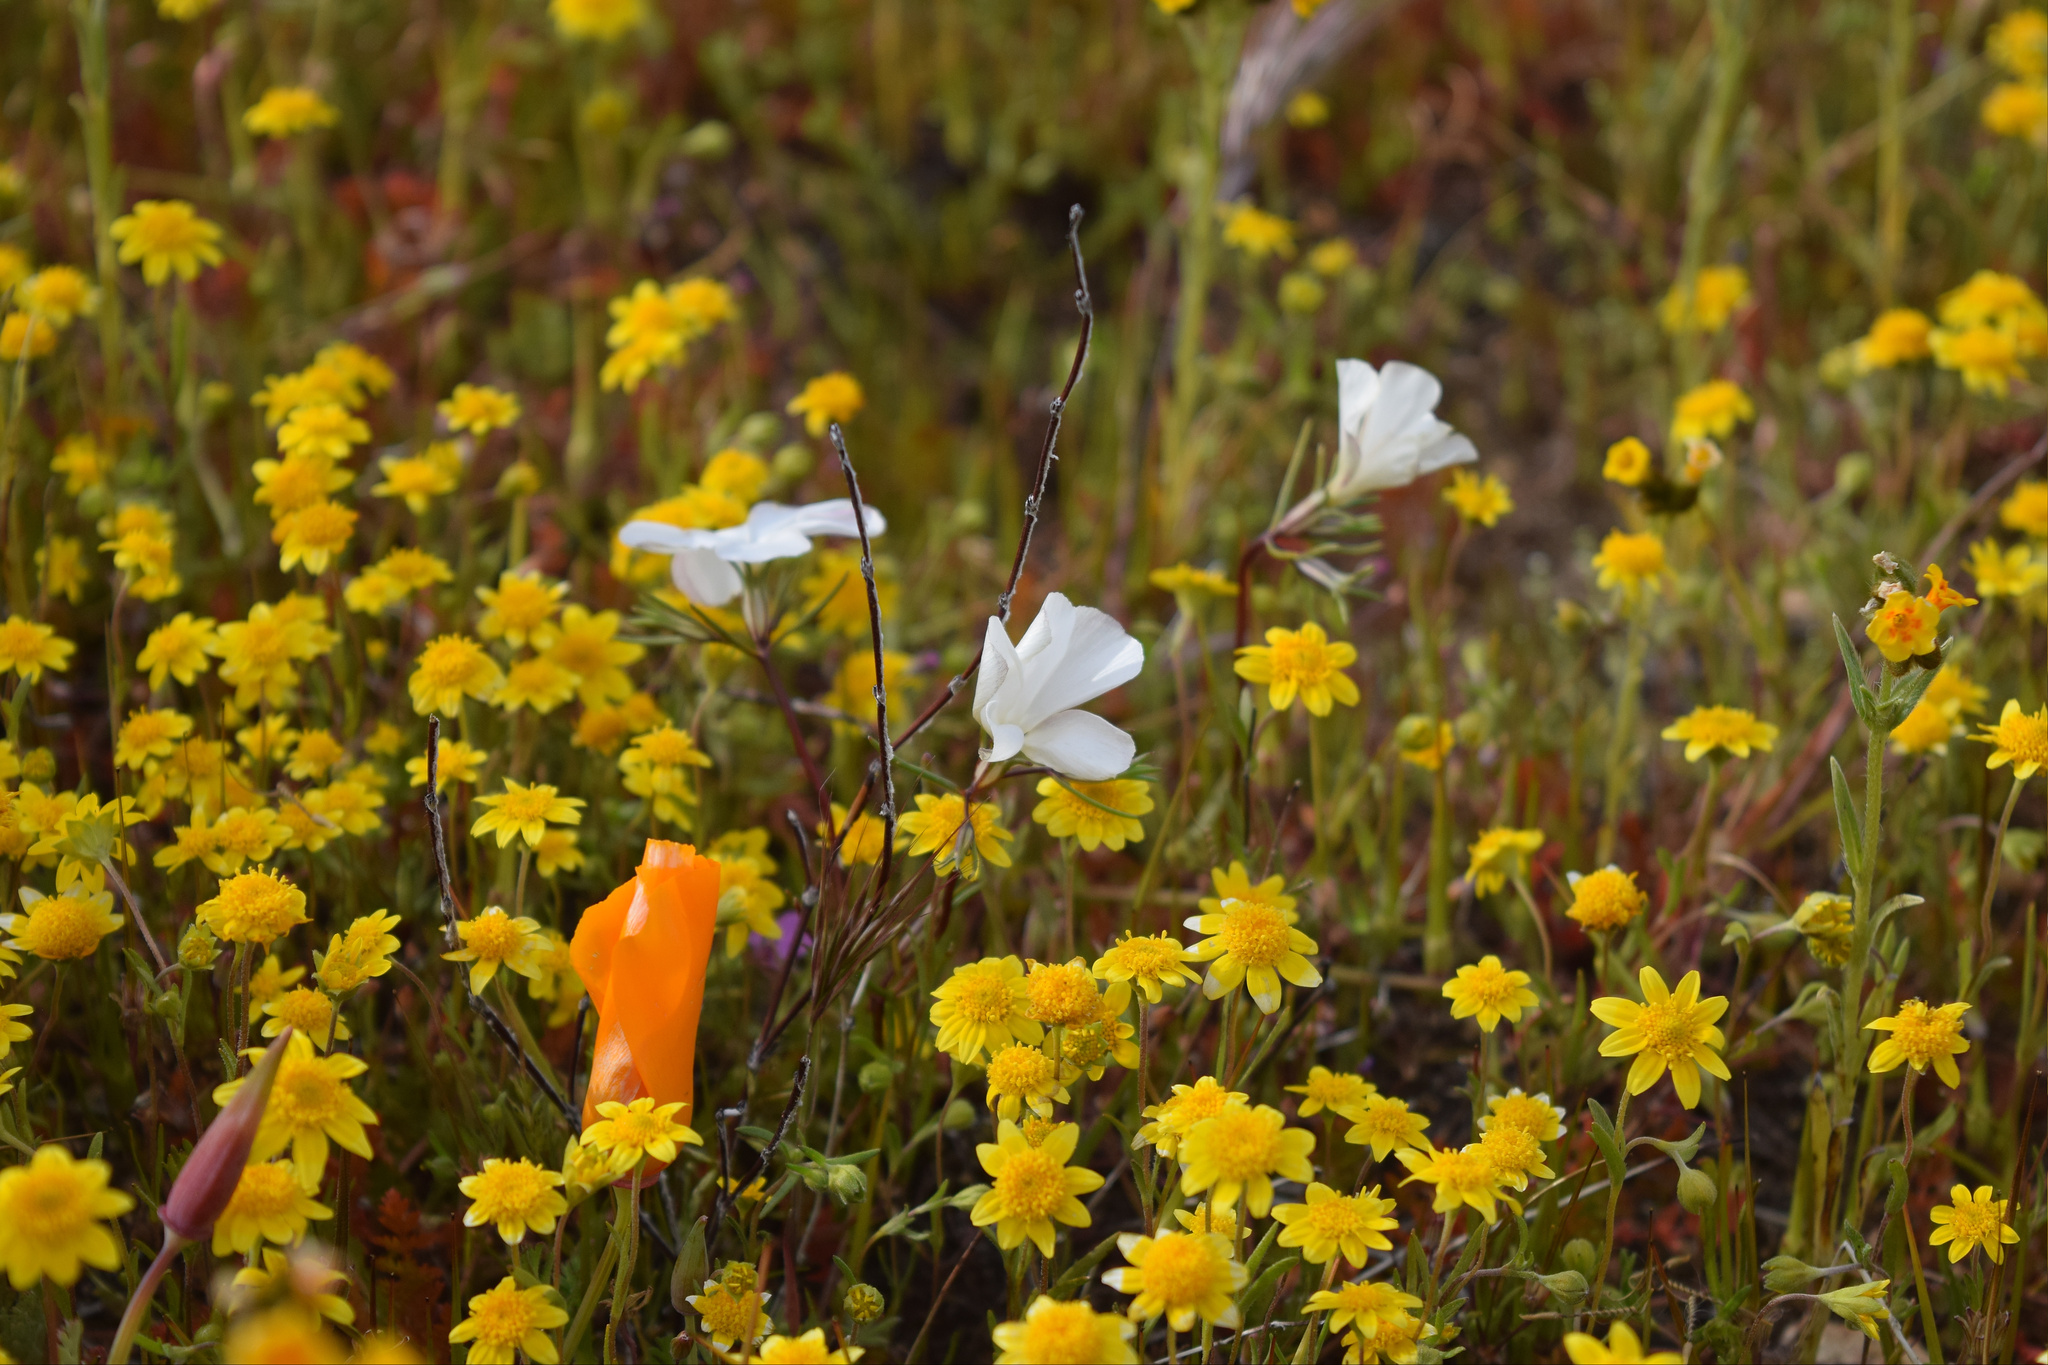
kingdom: Plantae
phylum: Tracheophyta
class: Magnoliopsida
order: Ericales
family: Polemoniaceae
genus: Linanthus
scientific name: Linanthus dichotomus
